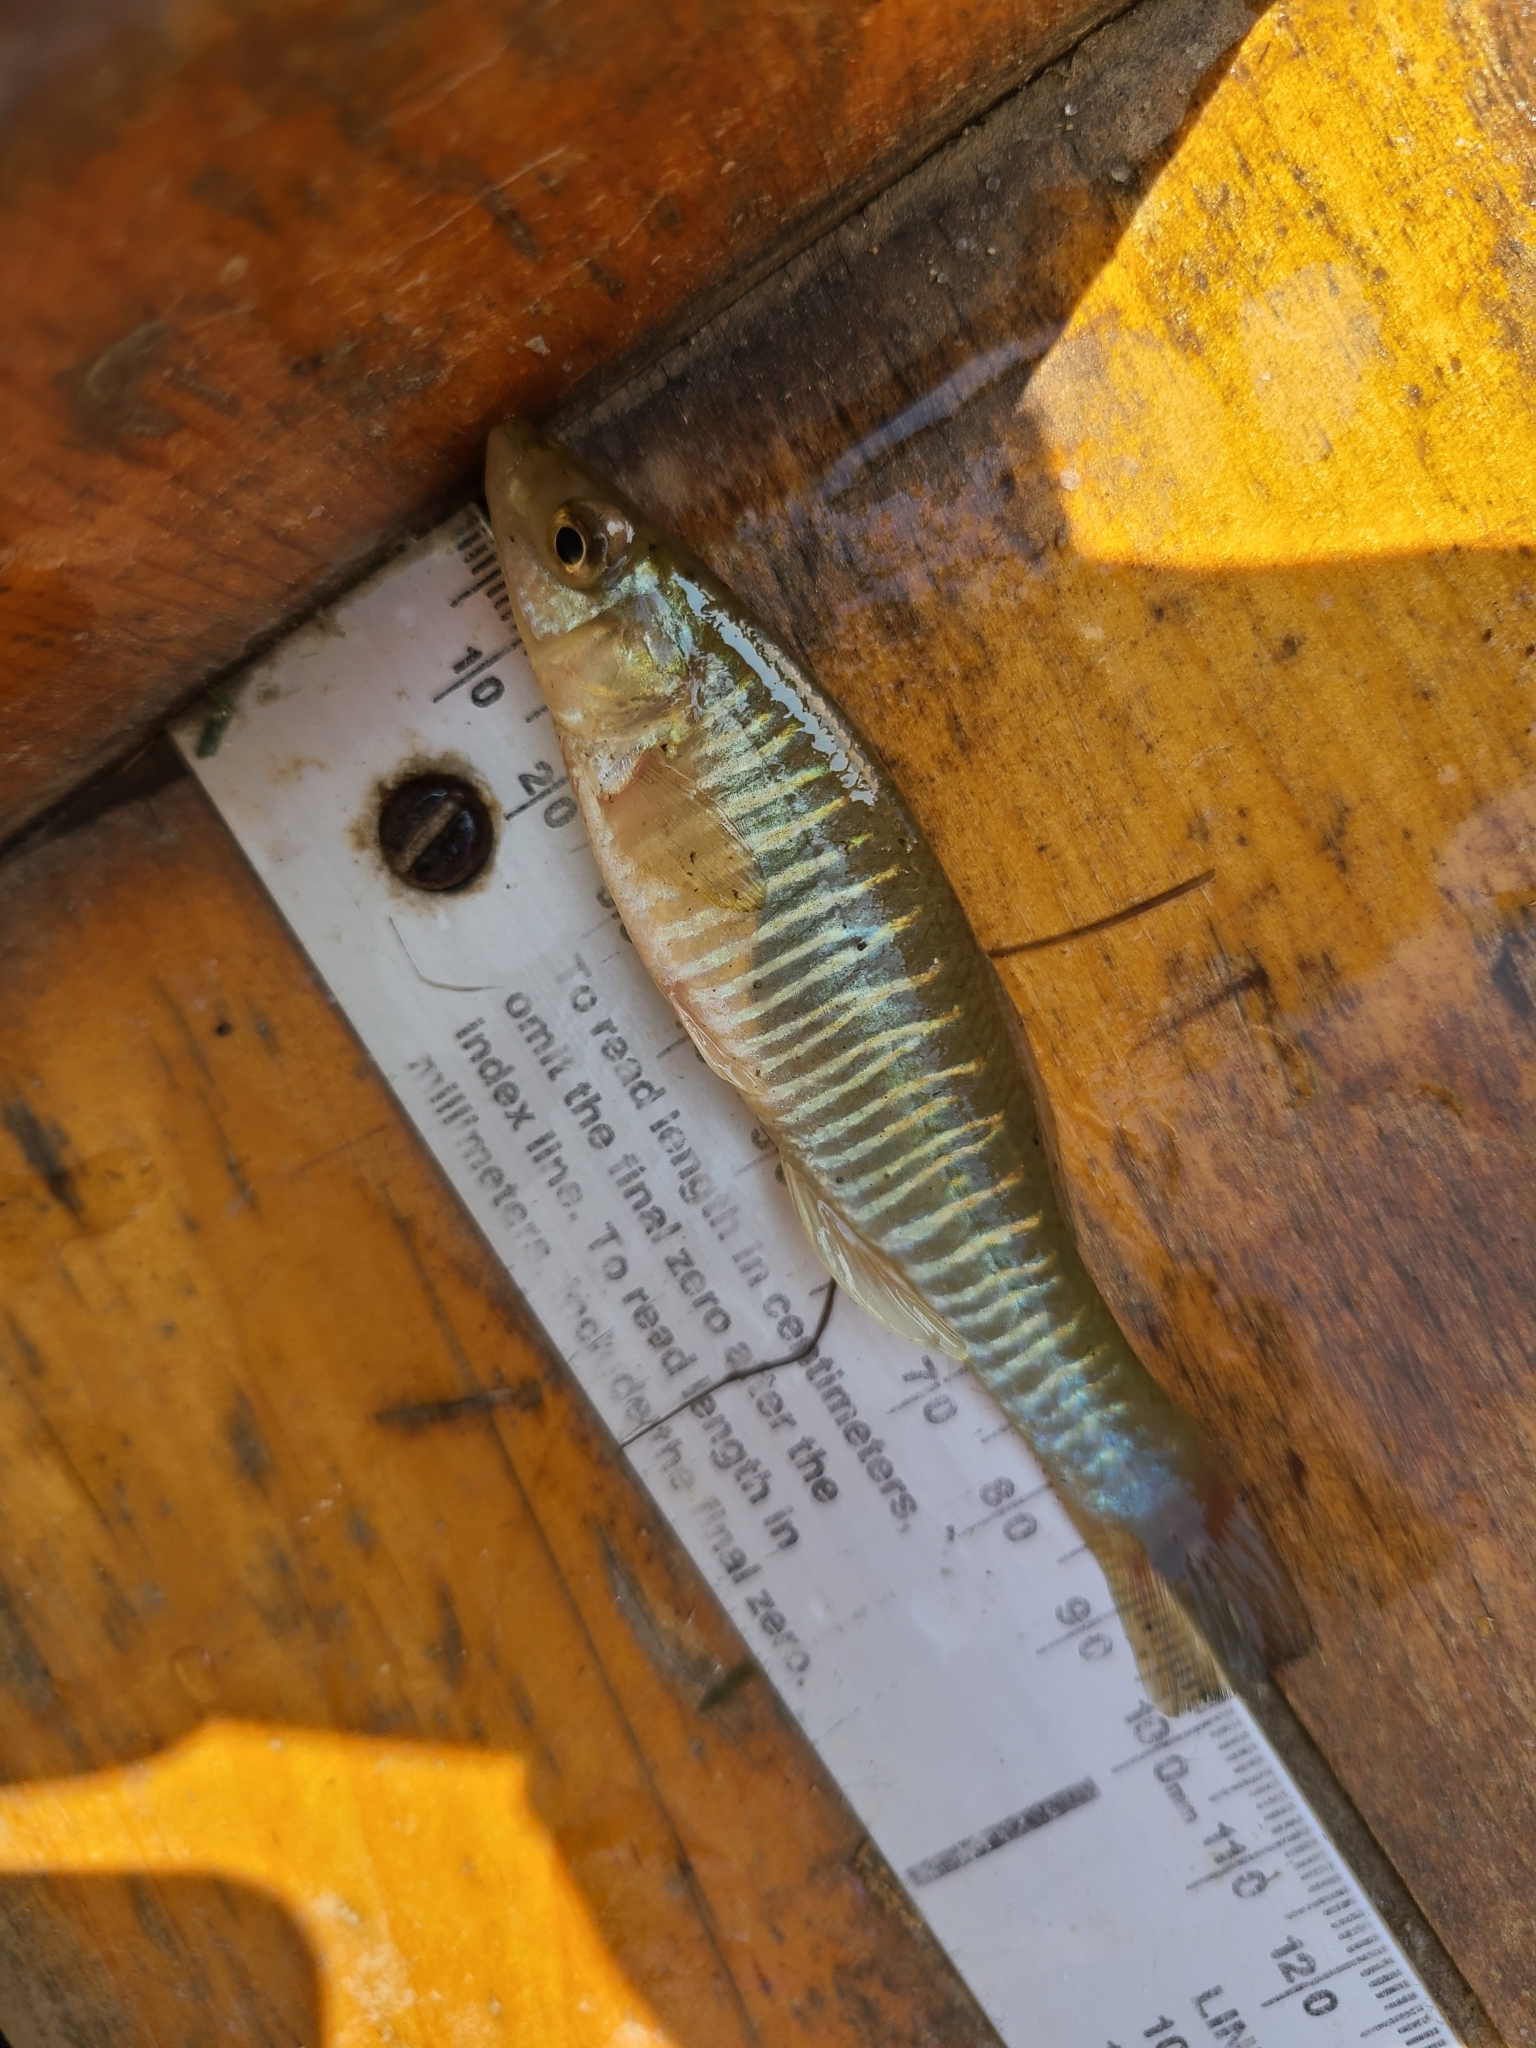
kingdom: Animalia
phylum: Chordata
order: Cyprinodontiformes
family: Fundulidae
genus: Fundulus
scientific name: Fundulus diaphanus
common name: Banded killifish
